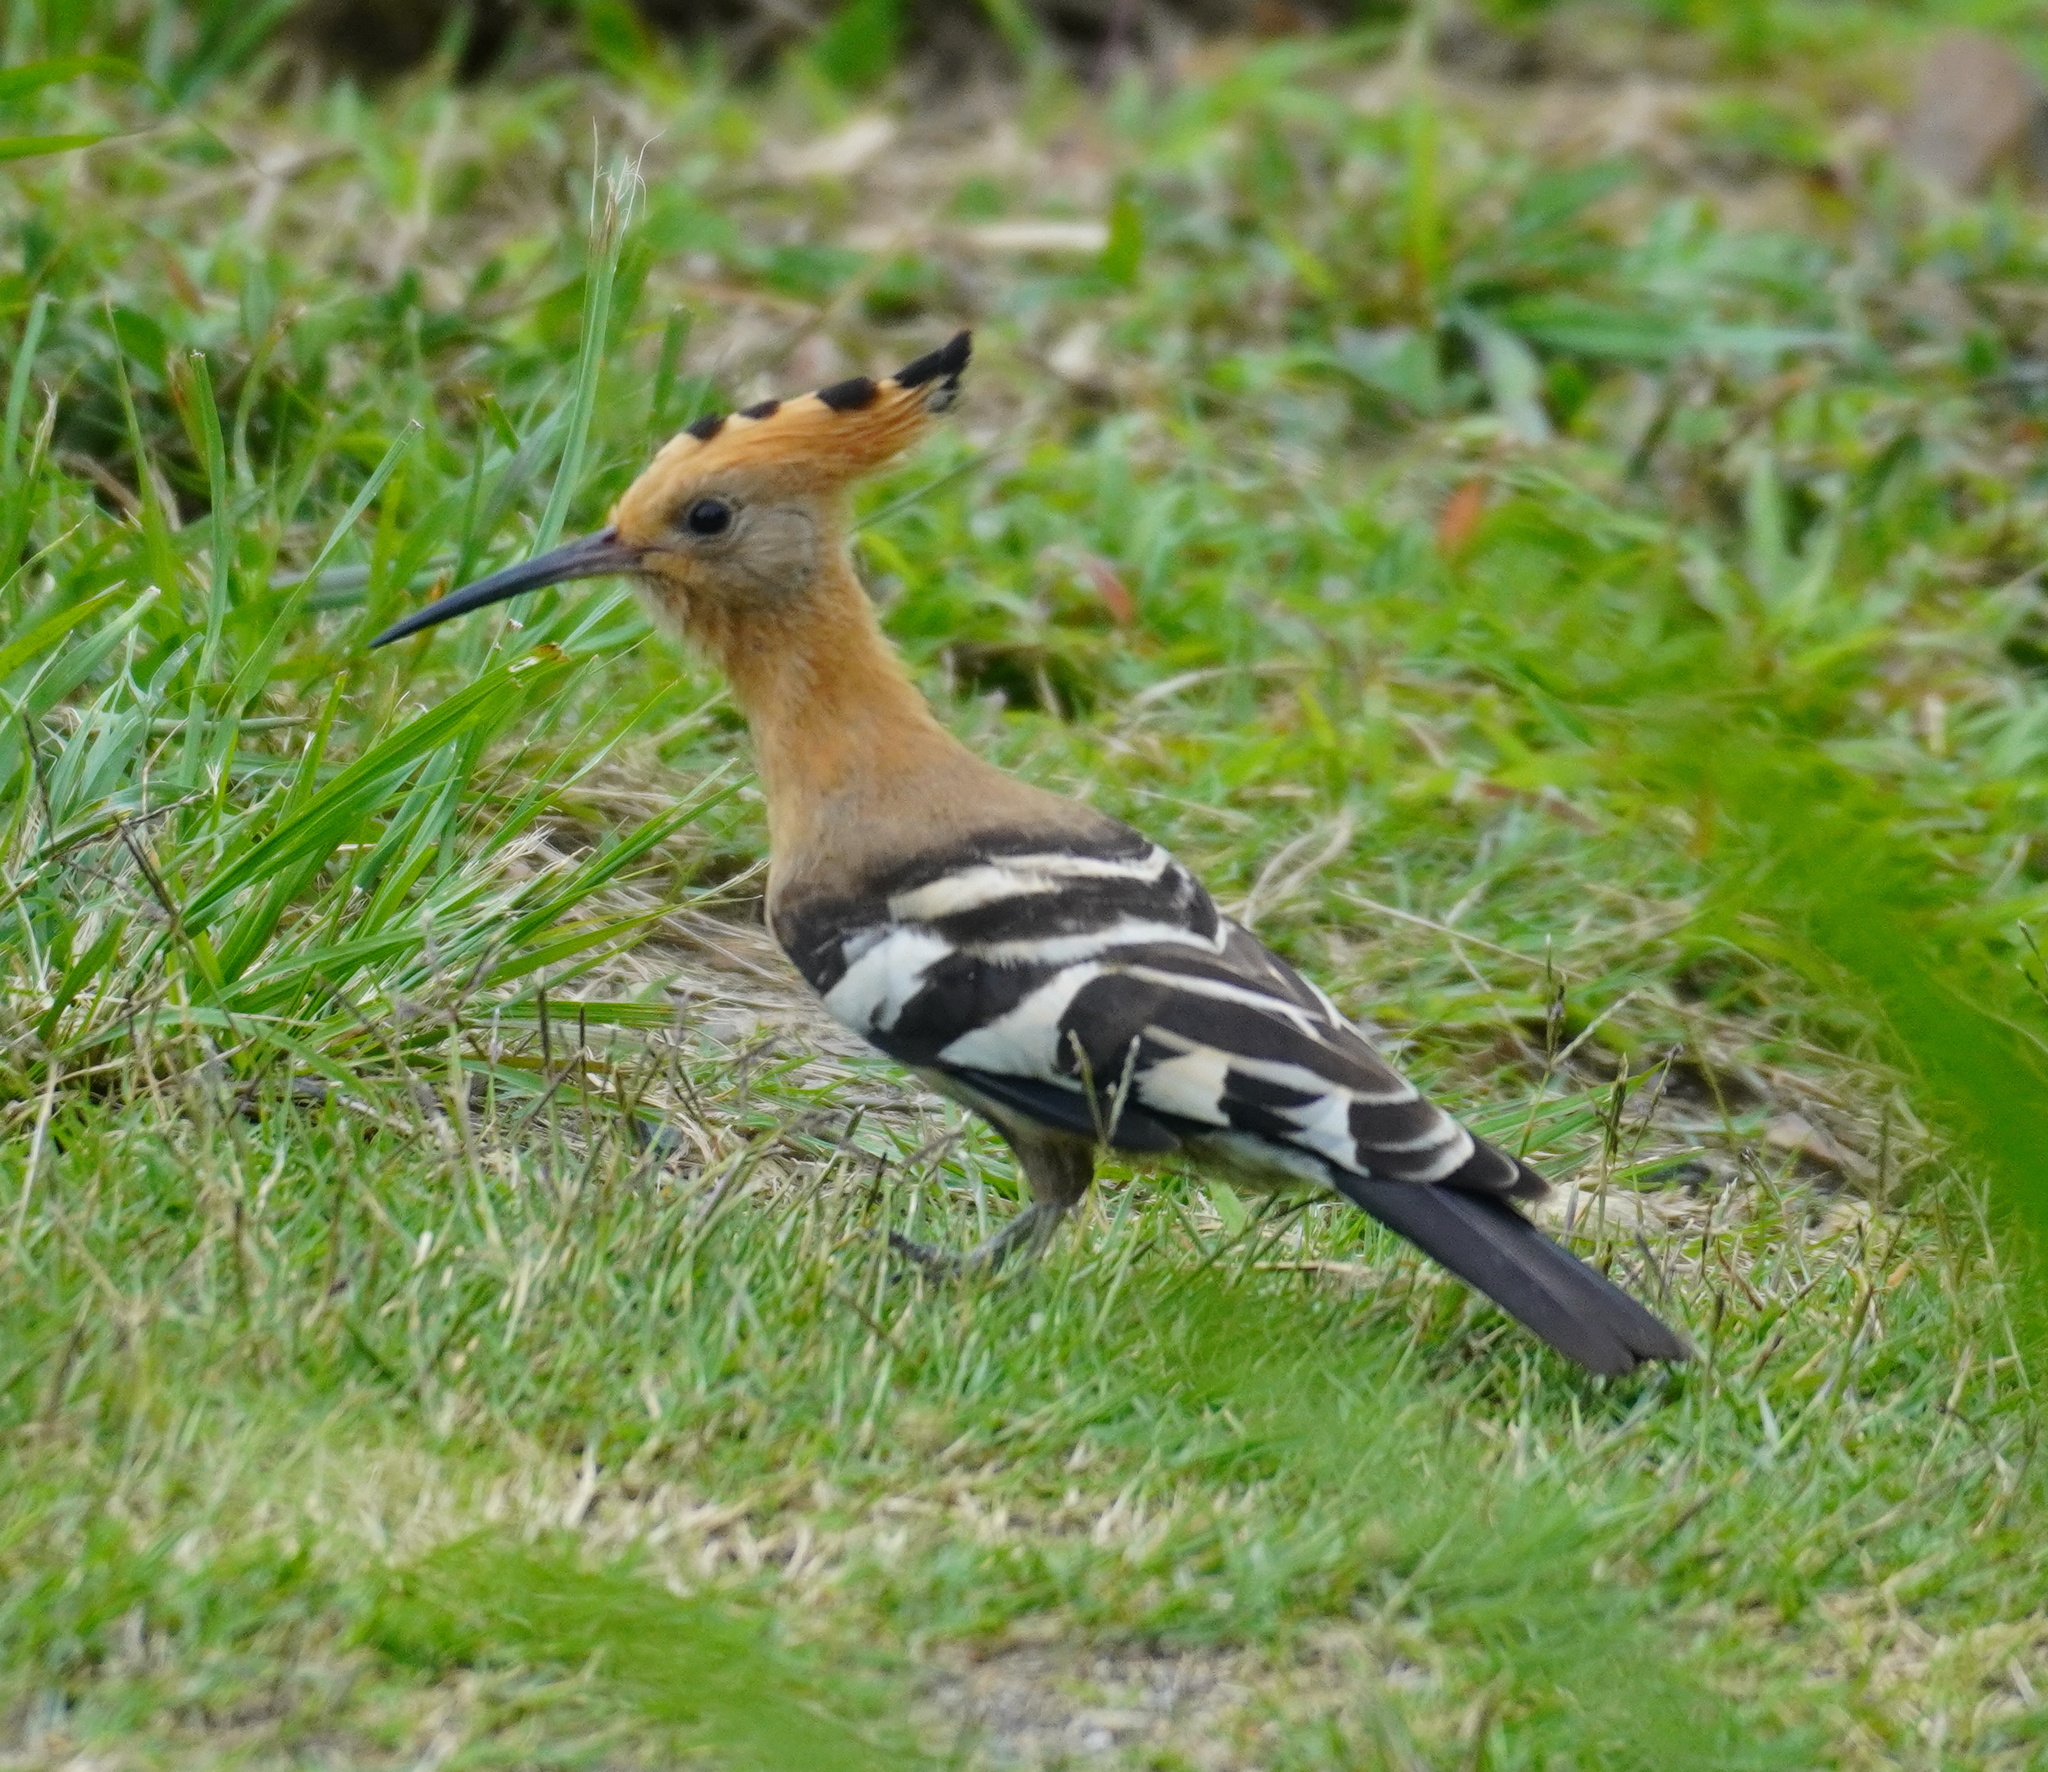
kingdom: Animalia
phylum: Chordata
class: Aves
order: Bucerotiformes
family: Upupidae
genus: Upupa
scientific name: Upupa africana
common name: African hoopoe
